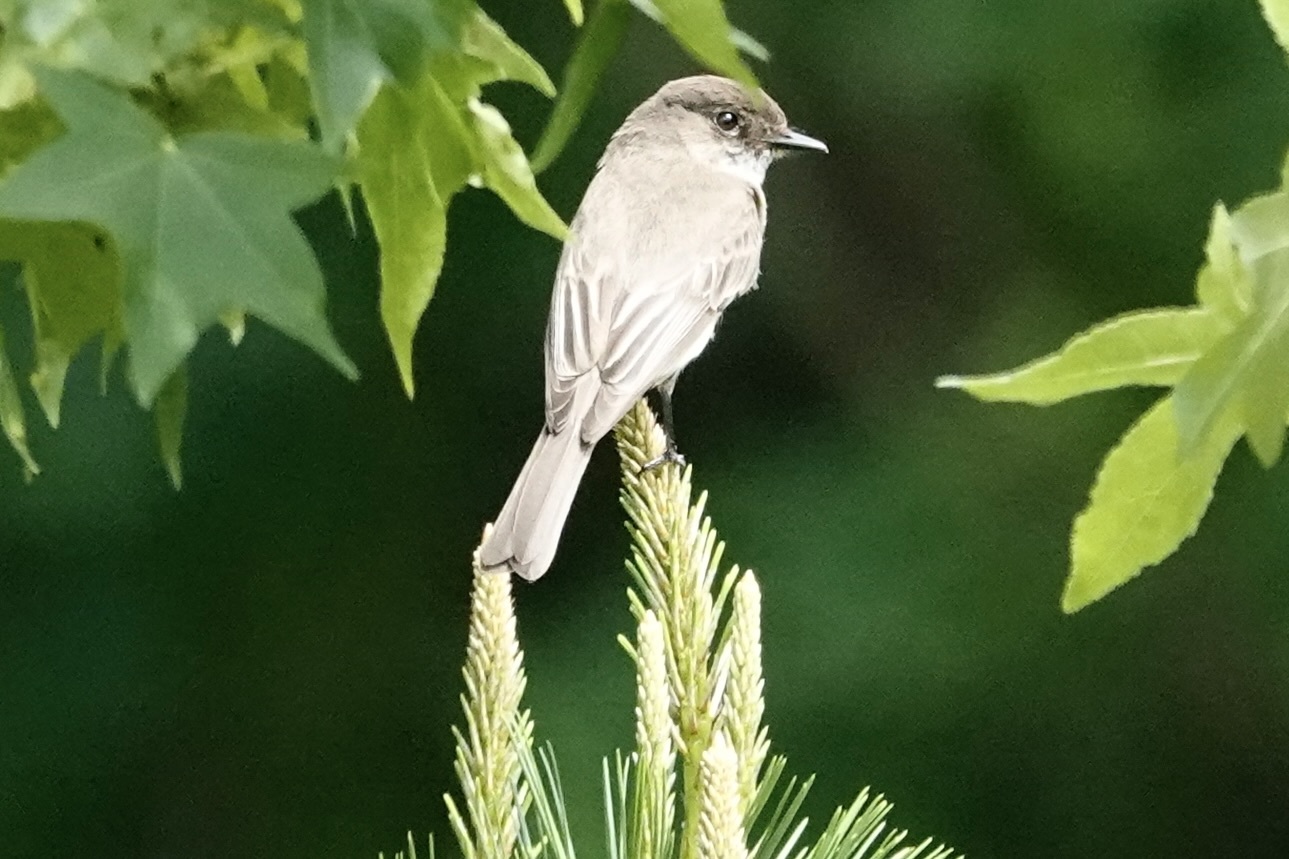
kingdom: Animalia
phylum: Chordata
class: Aves
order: Passeriformes
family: Tyrannidae
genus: Sayornis
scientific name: Sayornis phoebe
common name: Eastern phoebe
